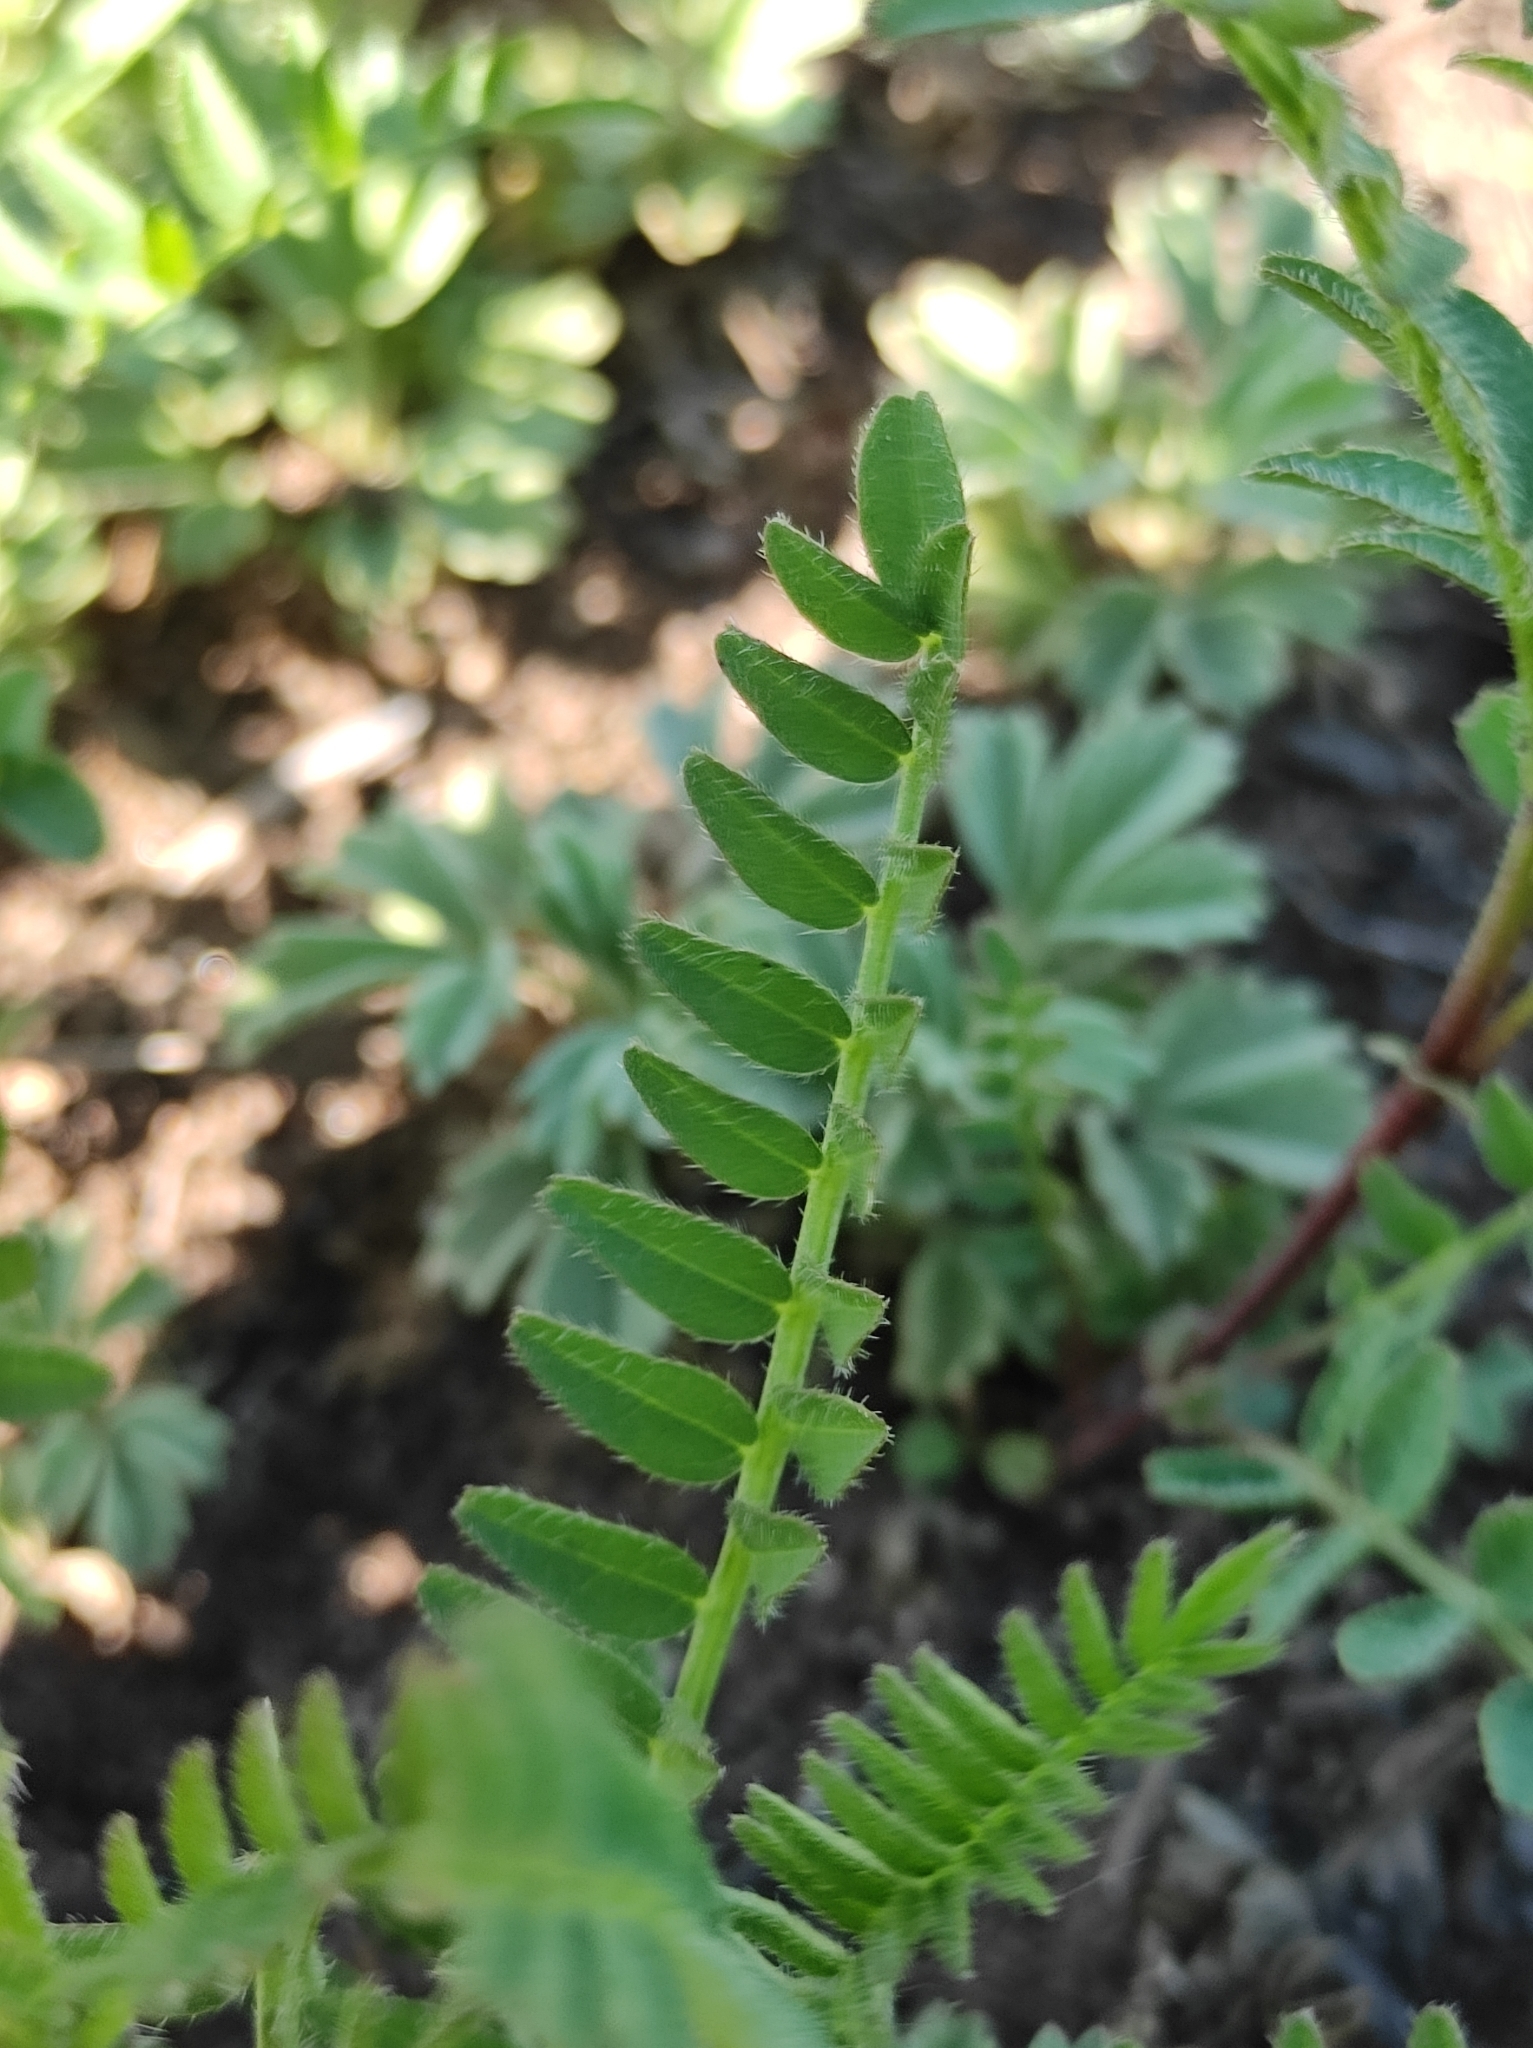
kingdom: Plantae
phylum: Tracheophyta
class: Magnoliopsida
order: Fabales
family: Fabaceae
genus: Astragalus
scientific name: Astragalus danicus
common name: Purple milk-vetch
